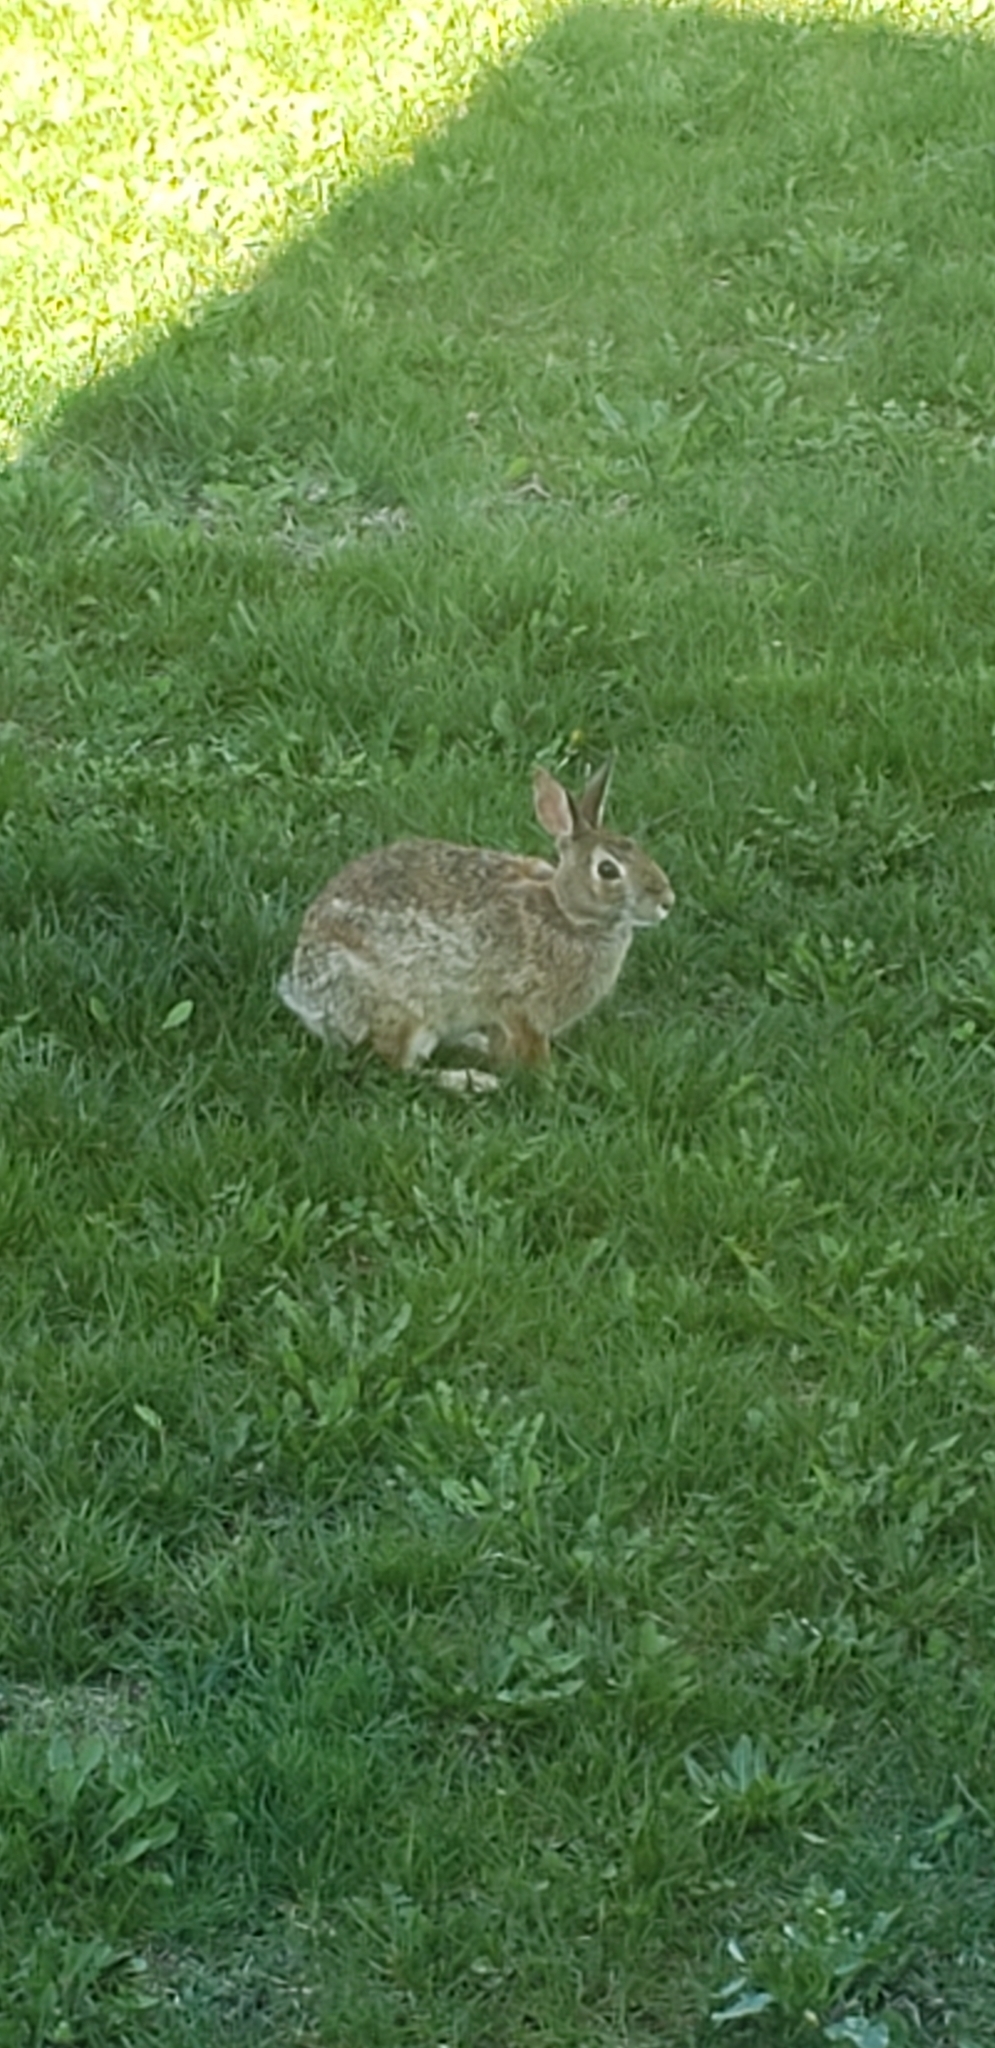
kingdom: Animalia
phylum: Chordata
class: Mammalia
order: Lagomorpha
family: Leporidae
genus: Sylvilagus
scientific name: Sylvilagus floridanus
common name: Eastern cottontail
